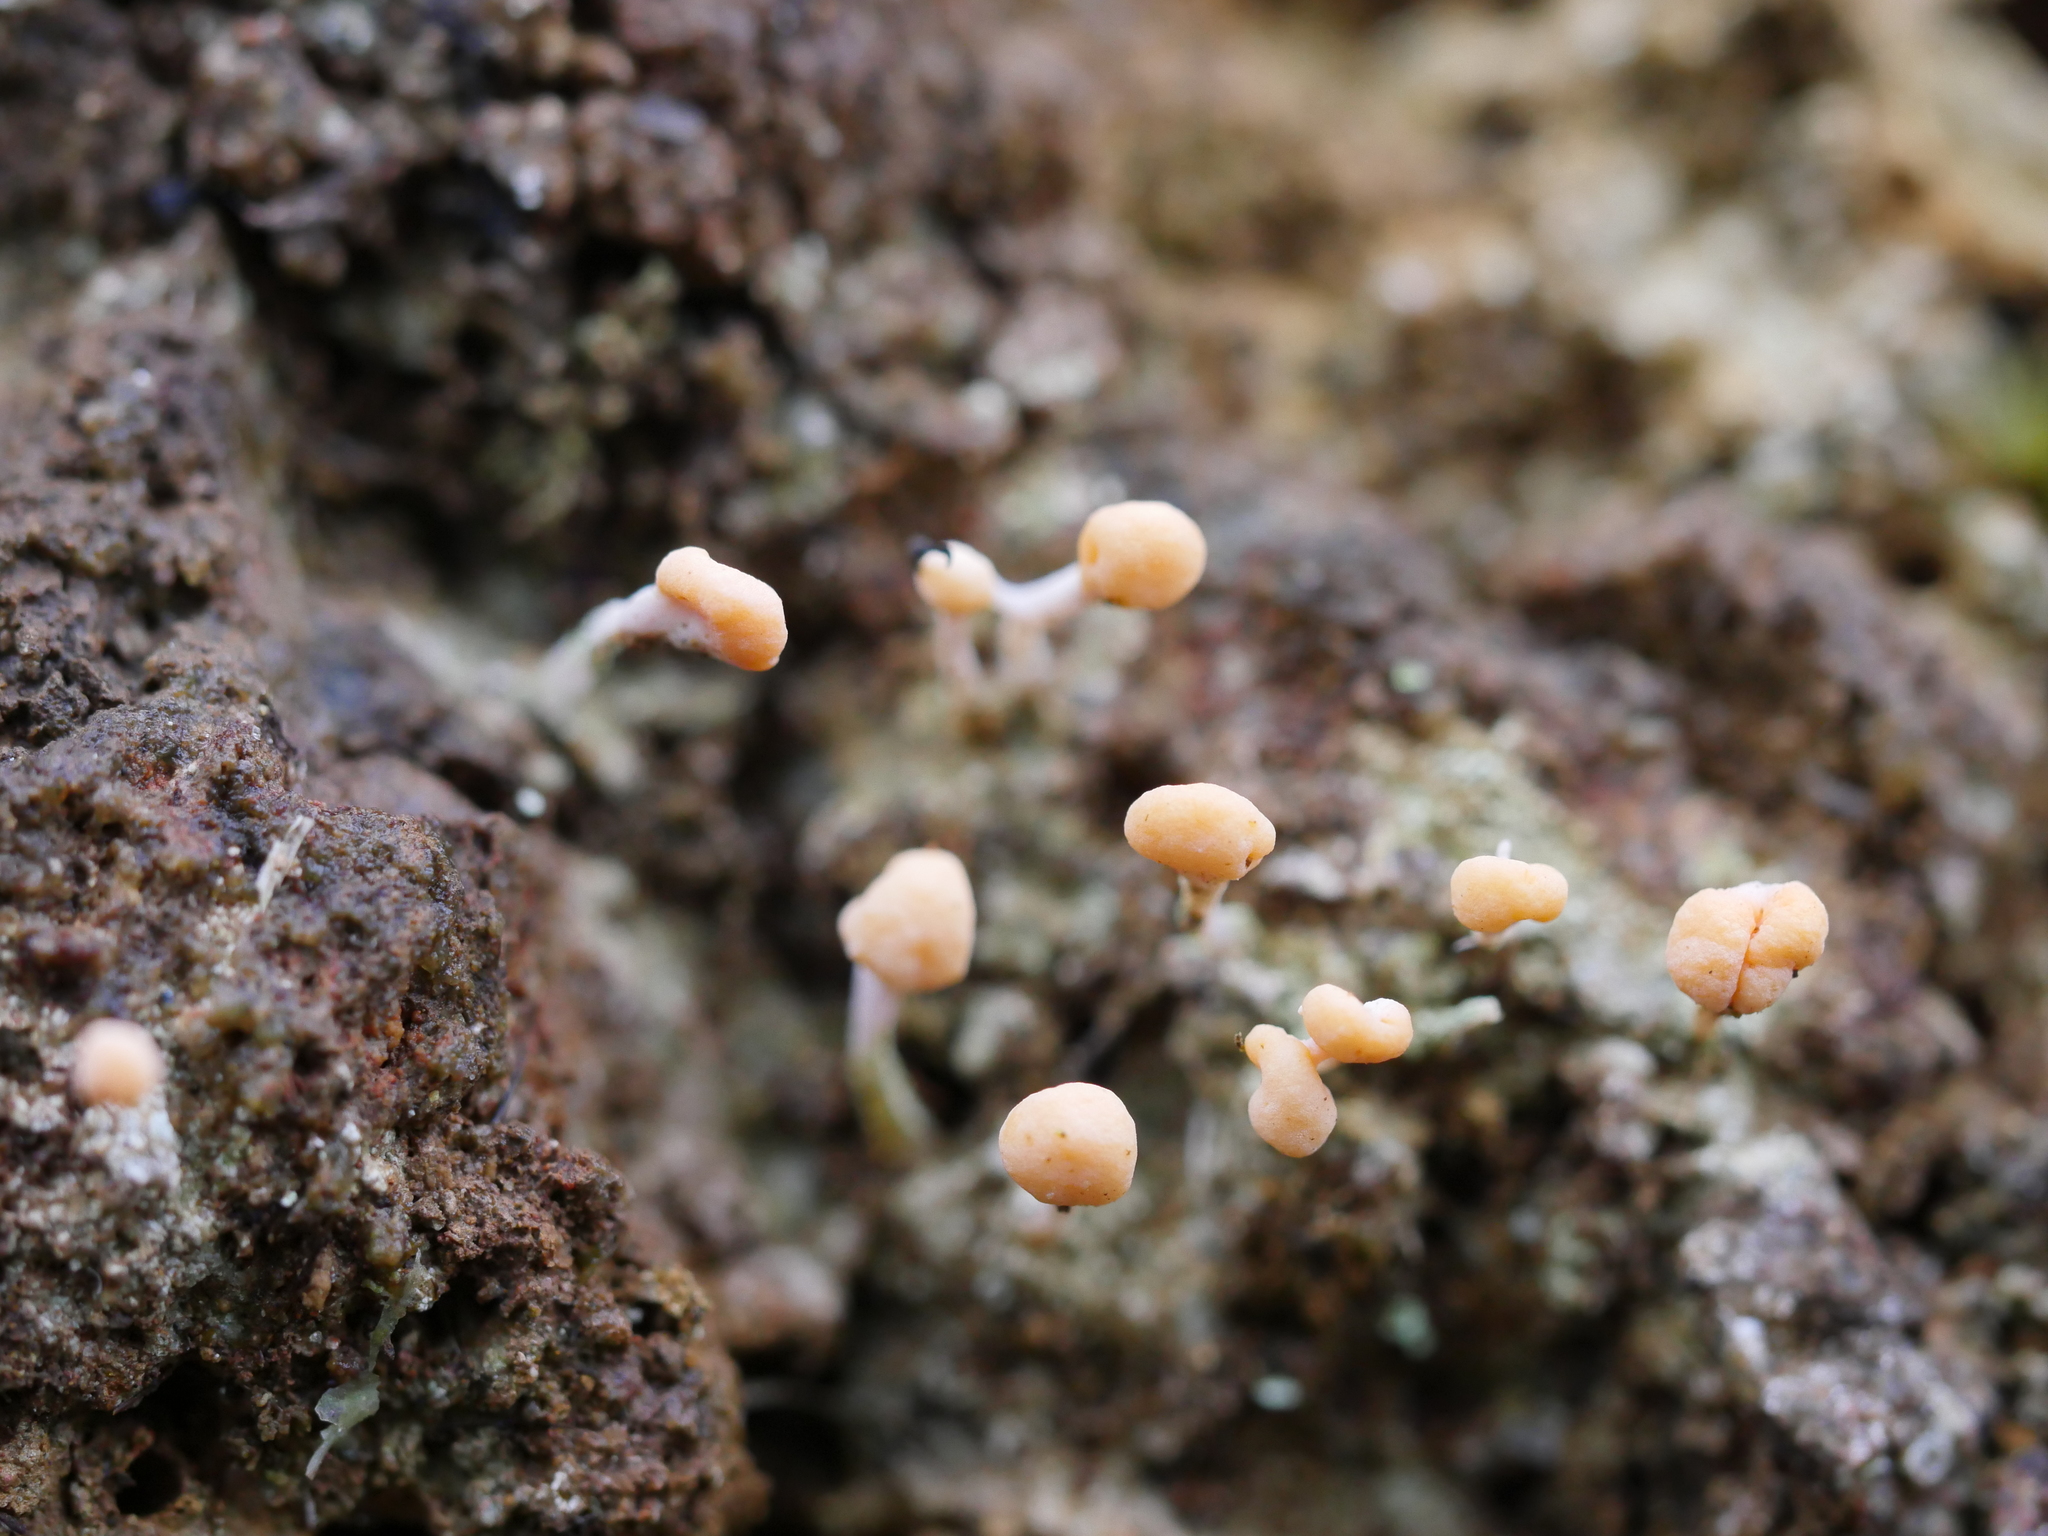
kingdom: Fungi
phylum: Ascomycota
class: Lecanoromycetes
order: Pertusariales
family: Icmadophilaceae
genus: Dibaeis
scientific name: Dibaeis arcuata
